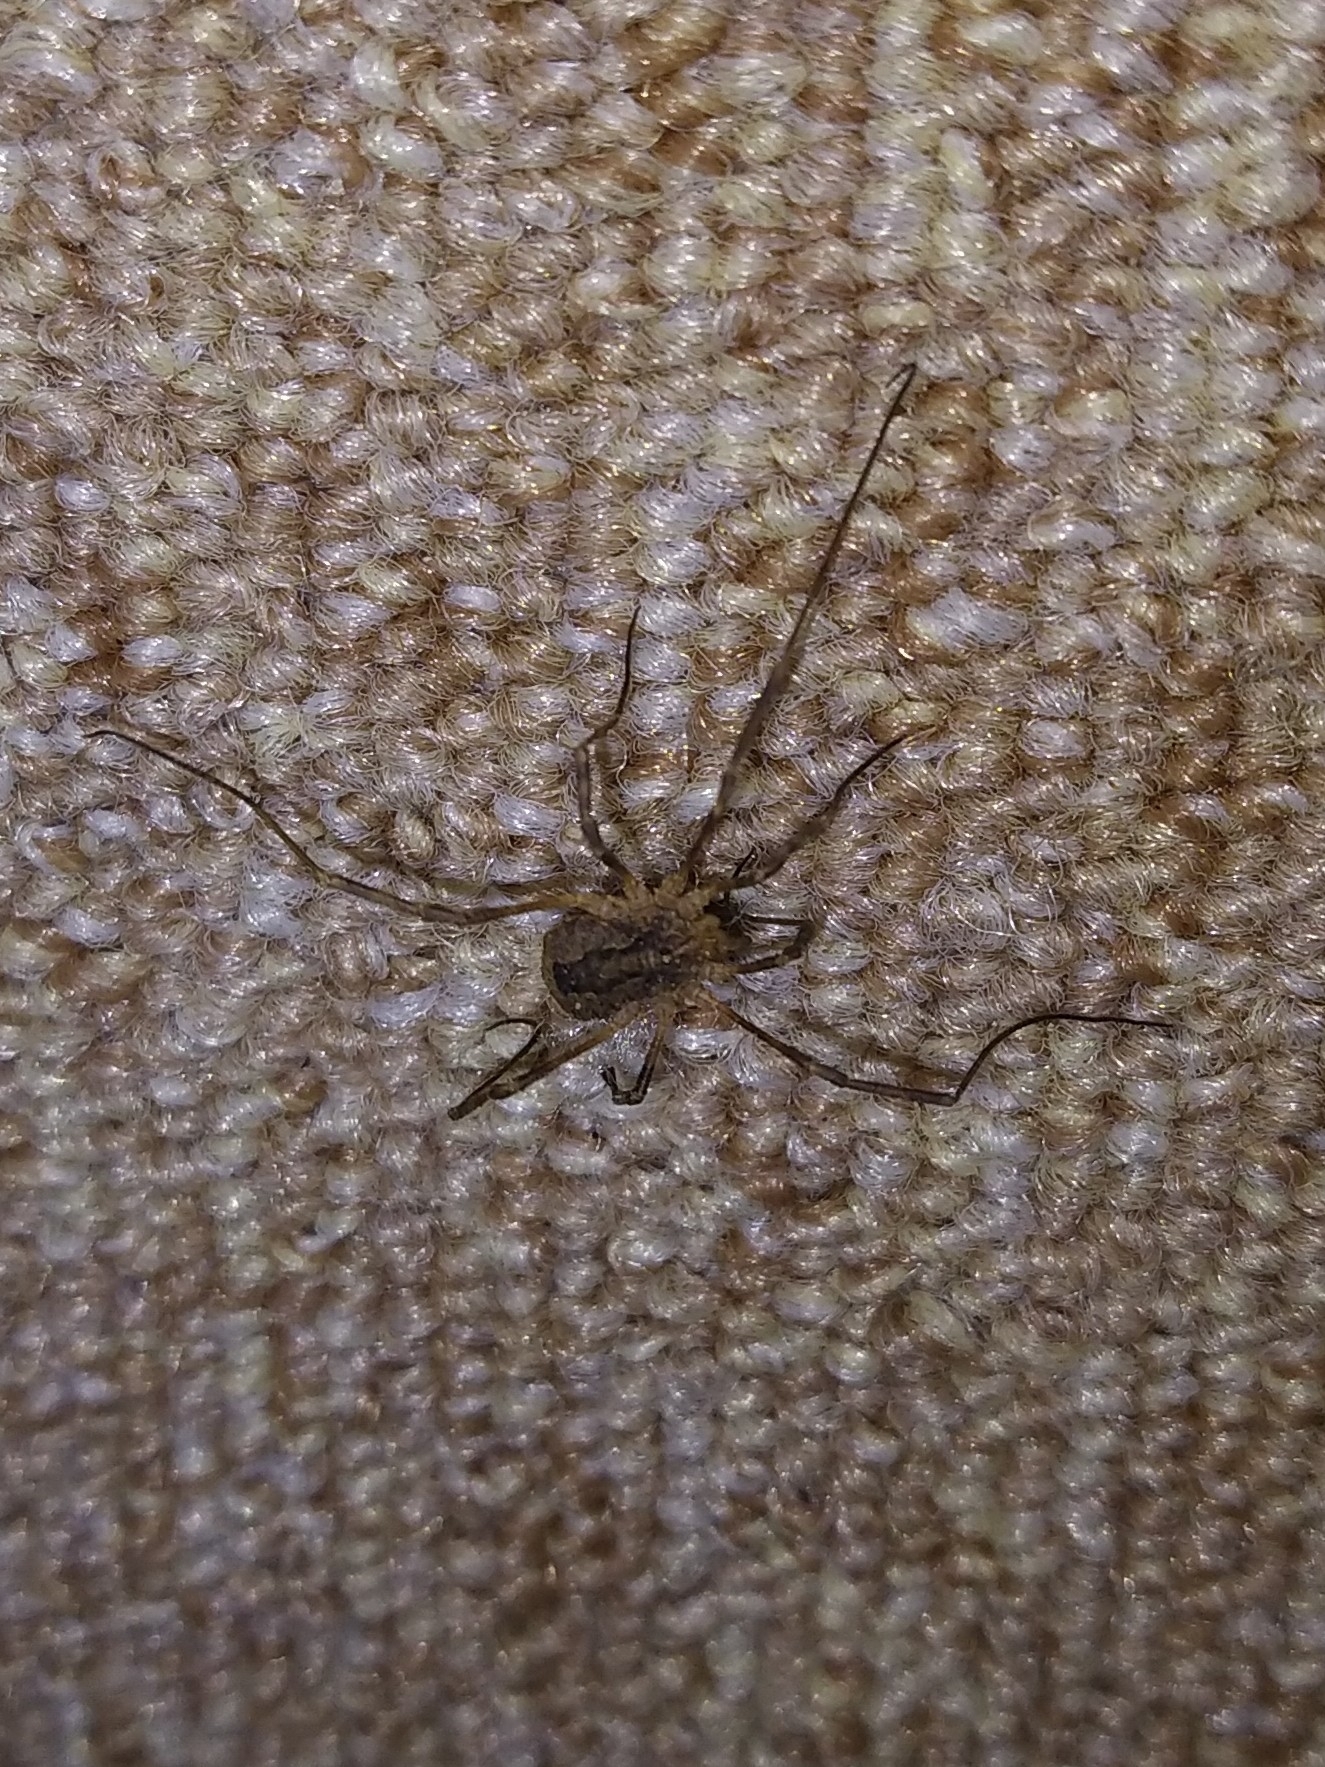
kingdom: Animalia
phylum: Arthropoda
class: Arachnida
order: Opiliones
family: Phalangiidae
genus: Odiellus
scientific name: Odiellus spinosus
